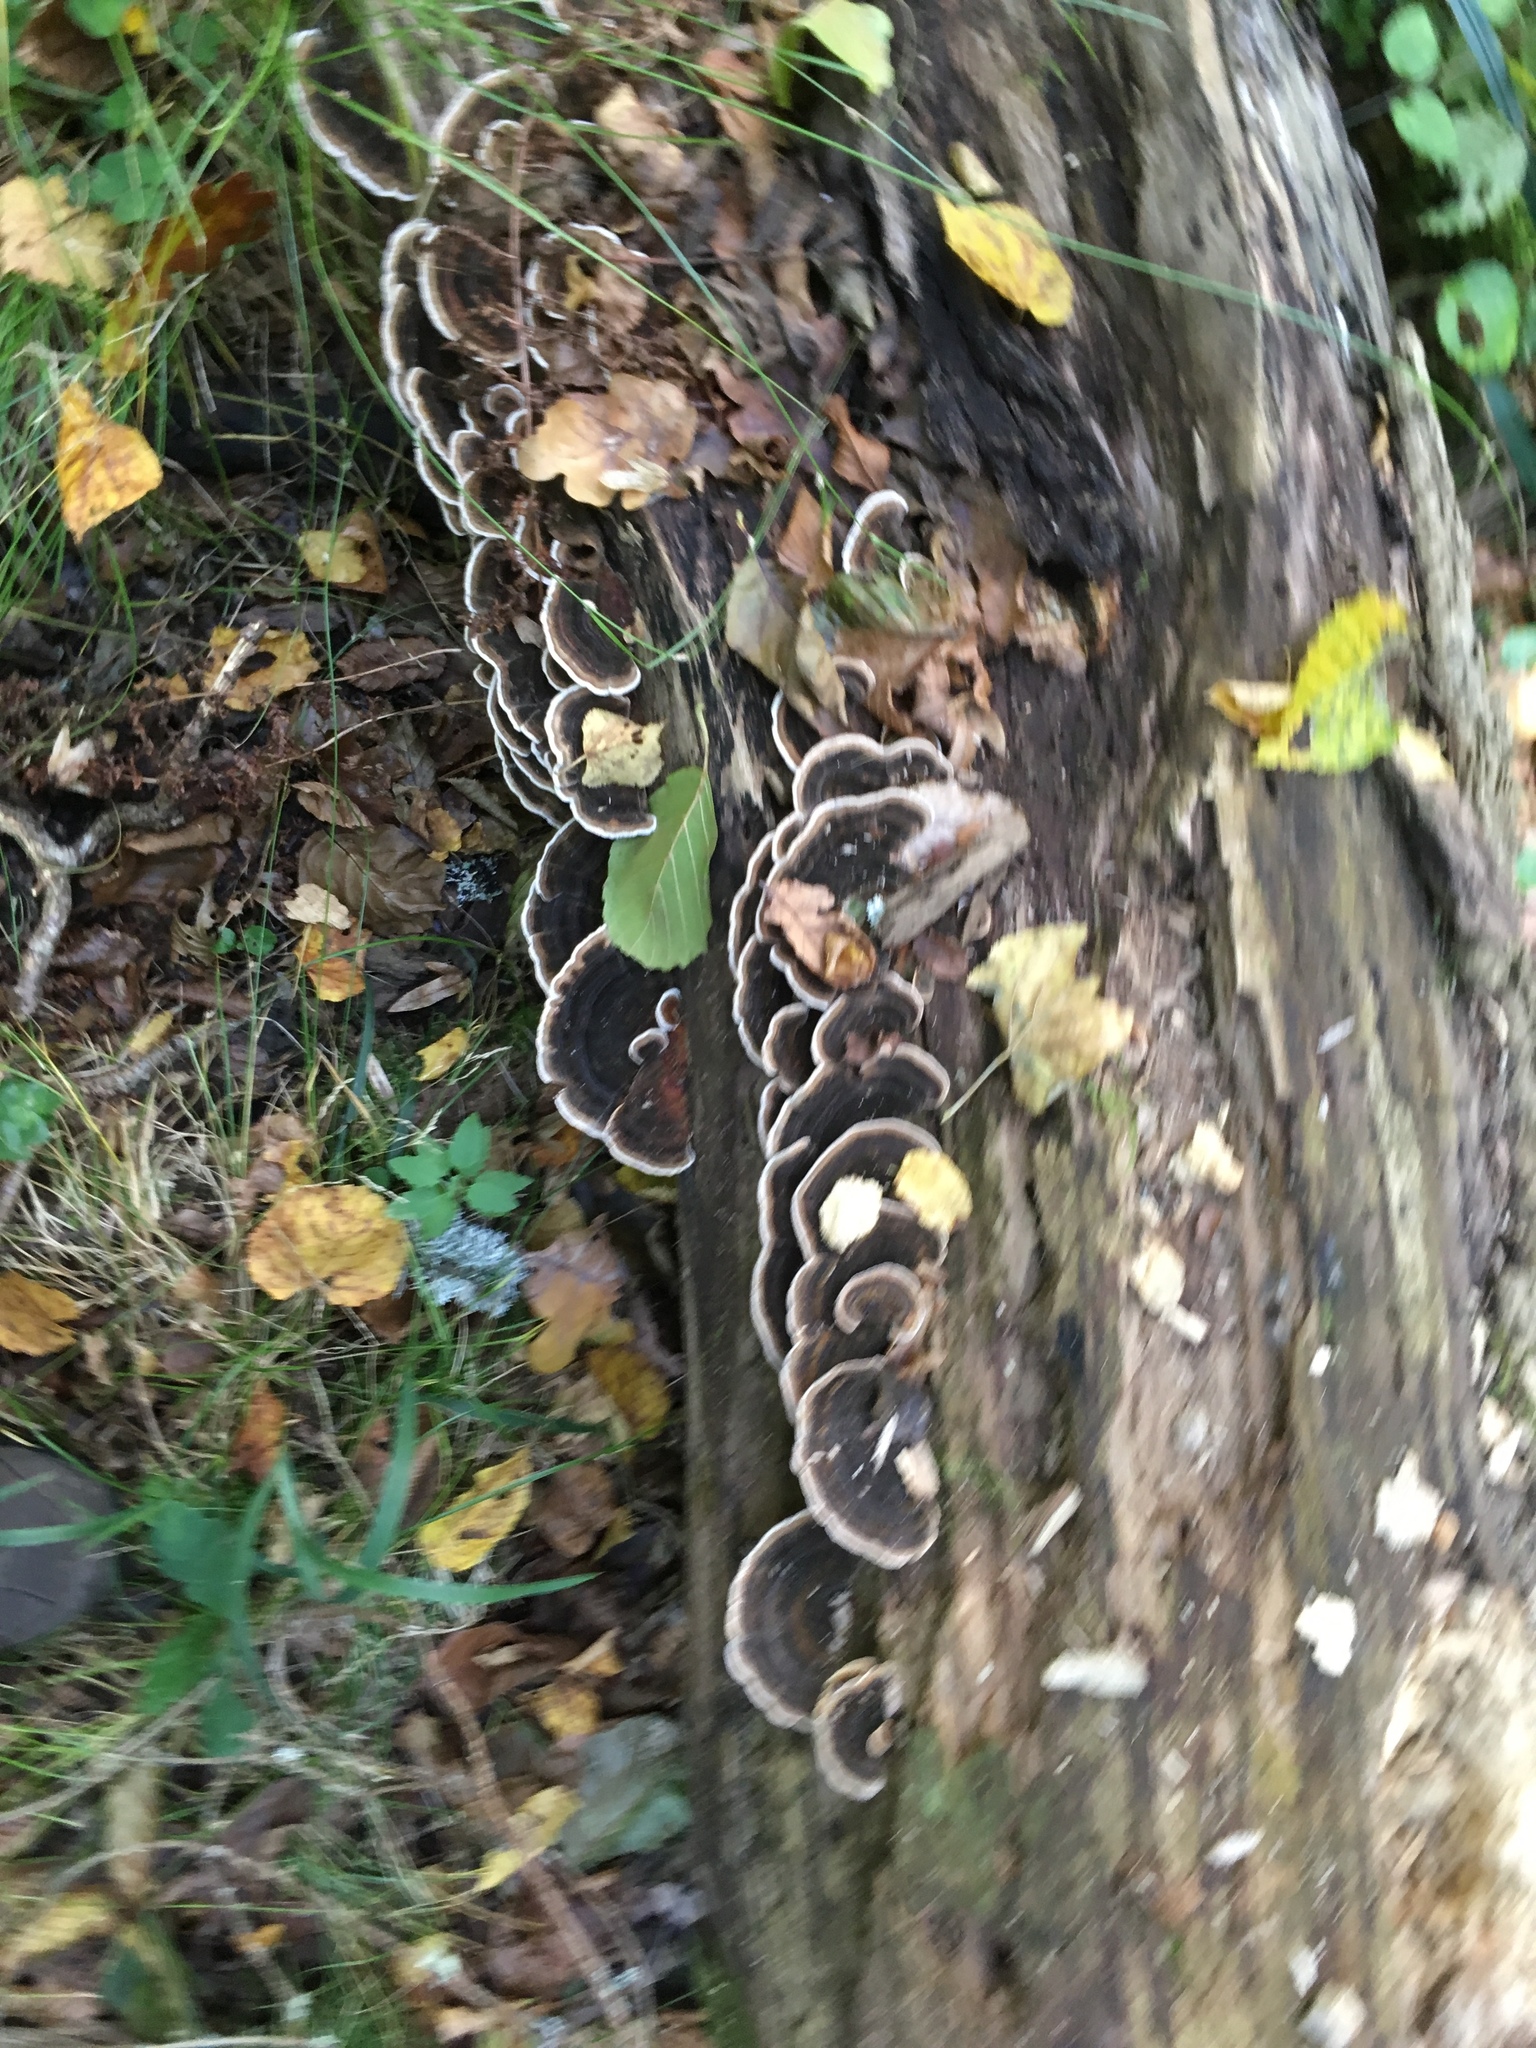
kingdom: Fungi
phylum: Basidiomycota
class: Agaricomycetes
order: Polyporales
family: Polyporaceae
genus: Trametes
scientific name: Trametes versicolor
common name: Turkeytail
